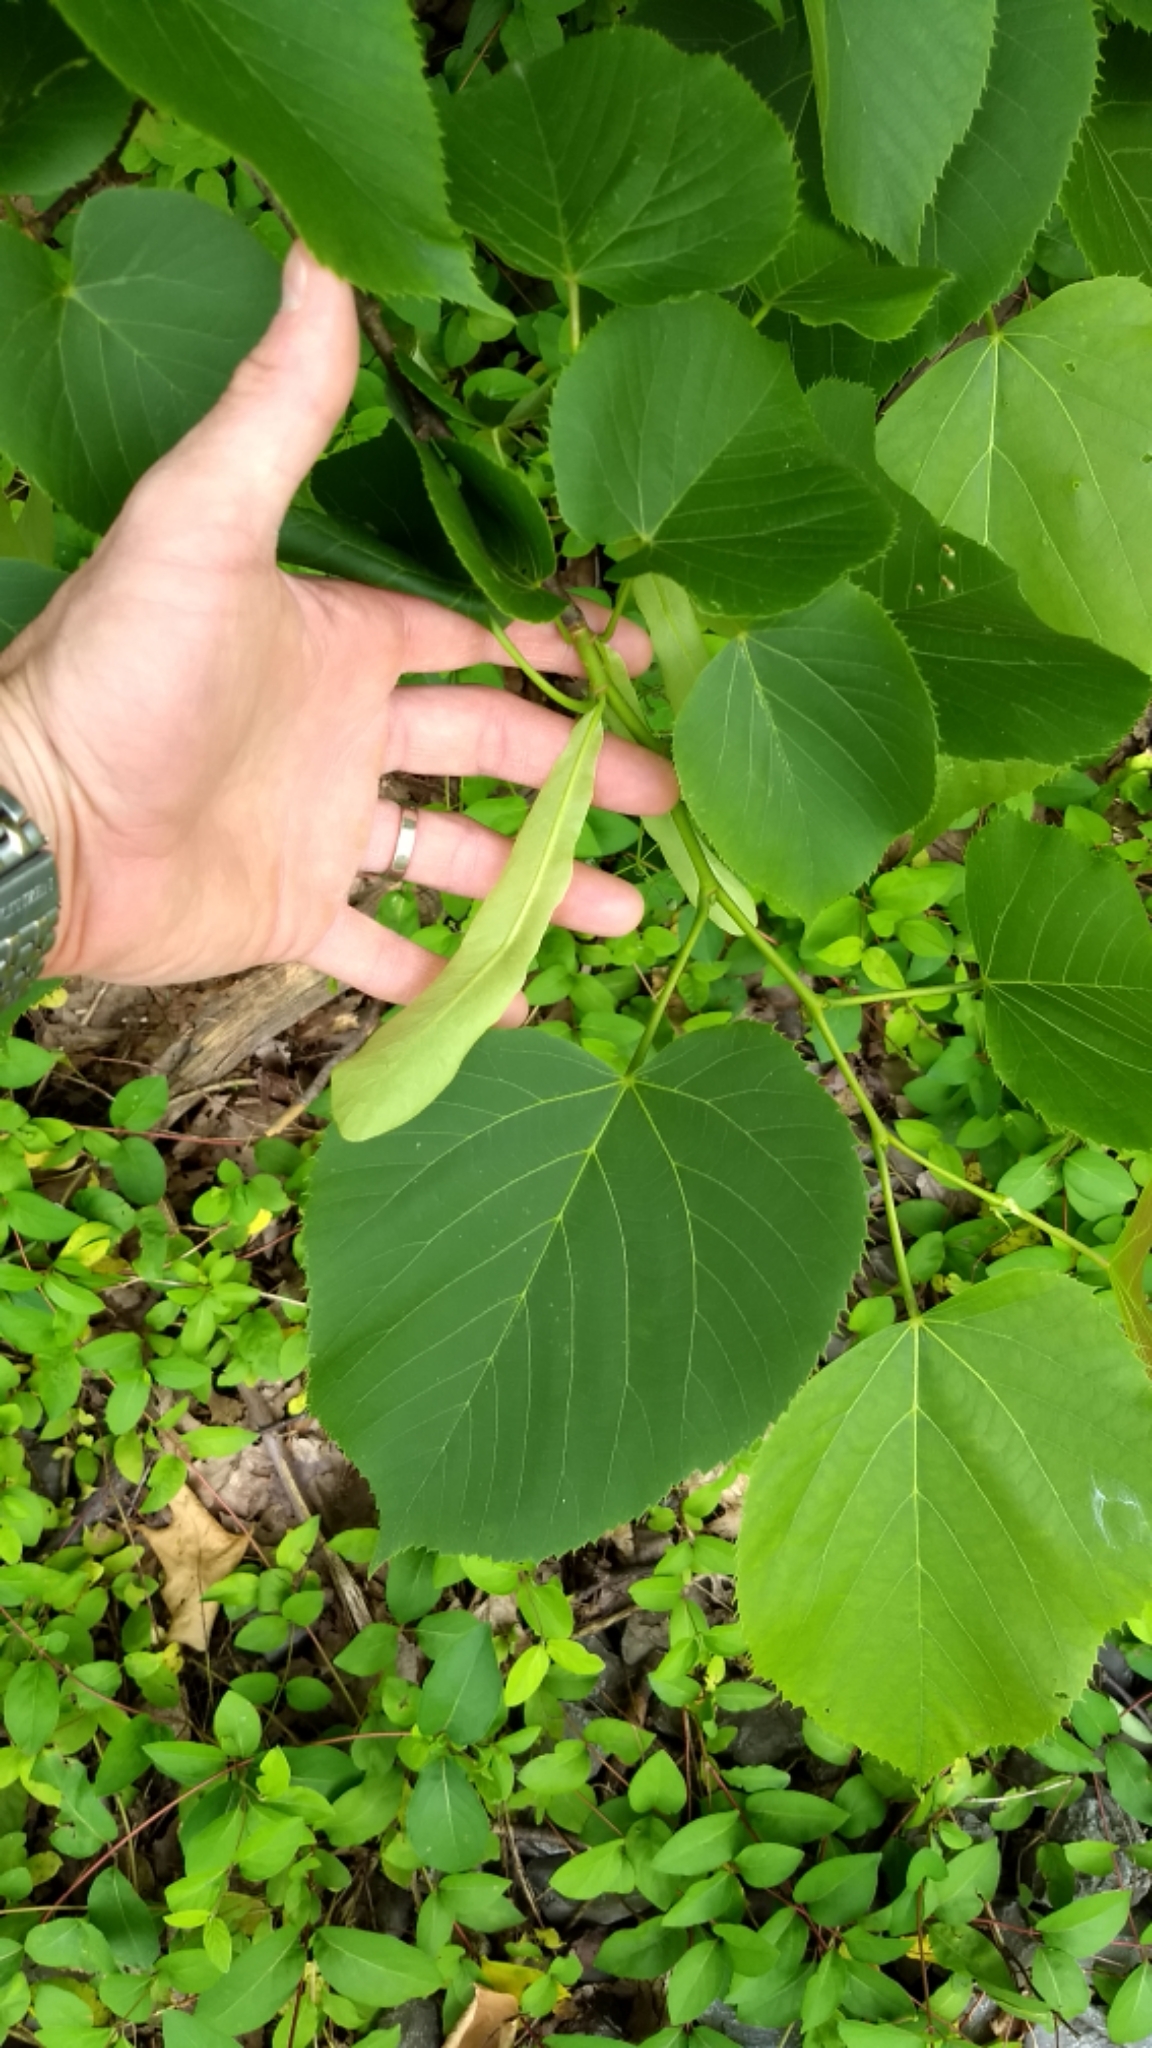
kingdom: Plantae
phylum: Tracheophyta
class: Magnoliopsida
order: Malvales
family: Malvaceae
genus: Tilia
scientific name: Tilia americana
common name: Basswood
